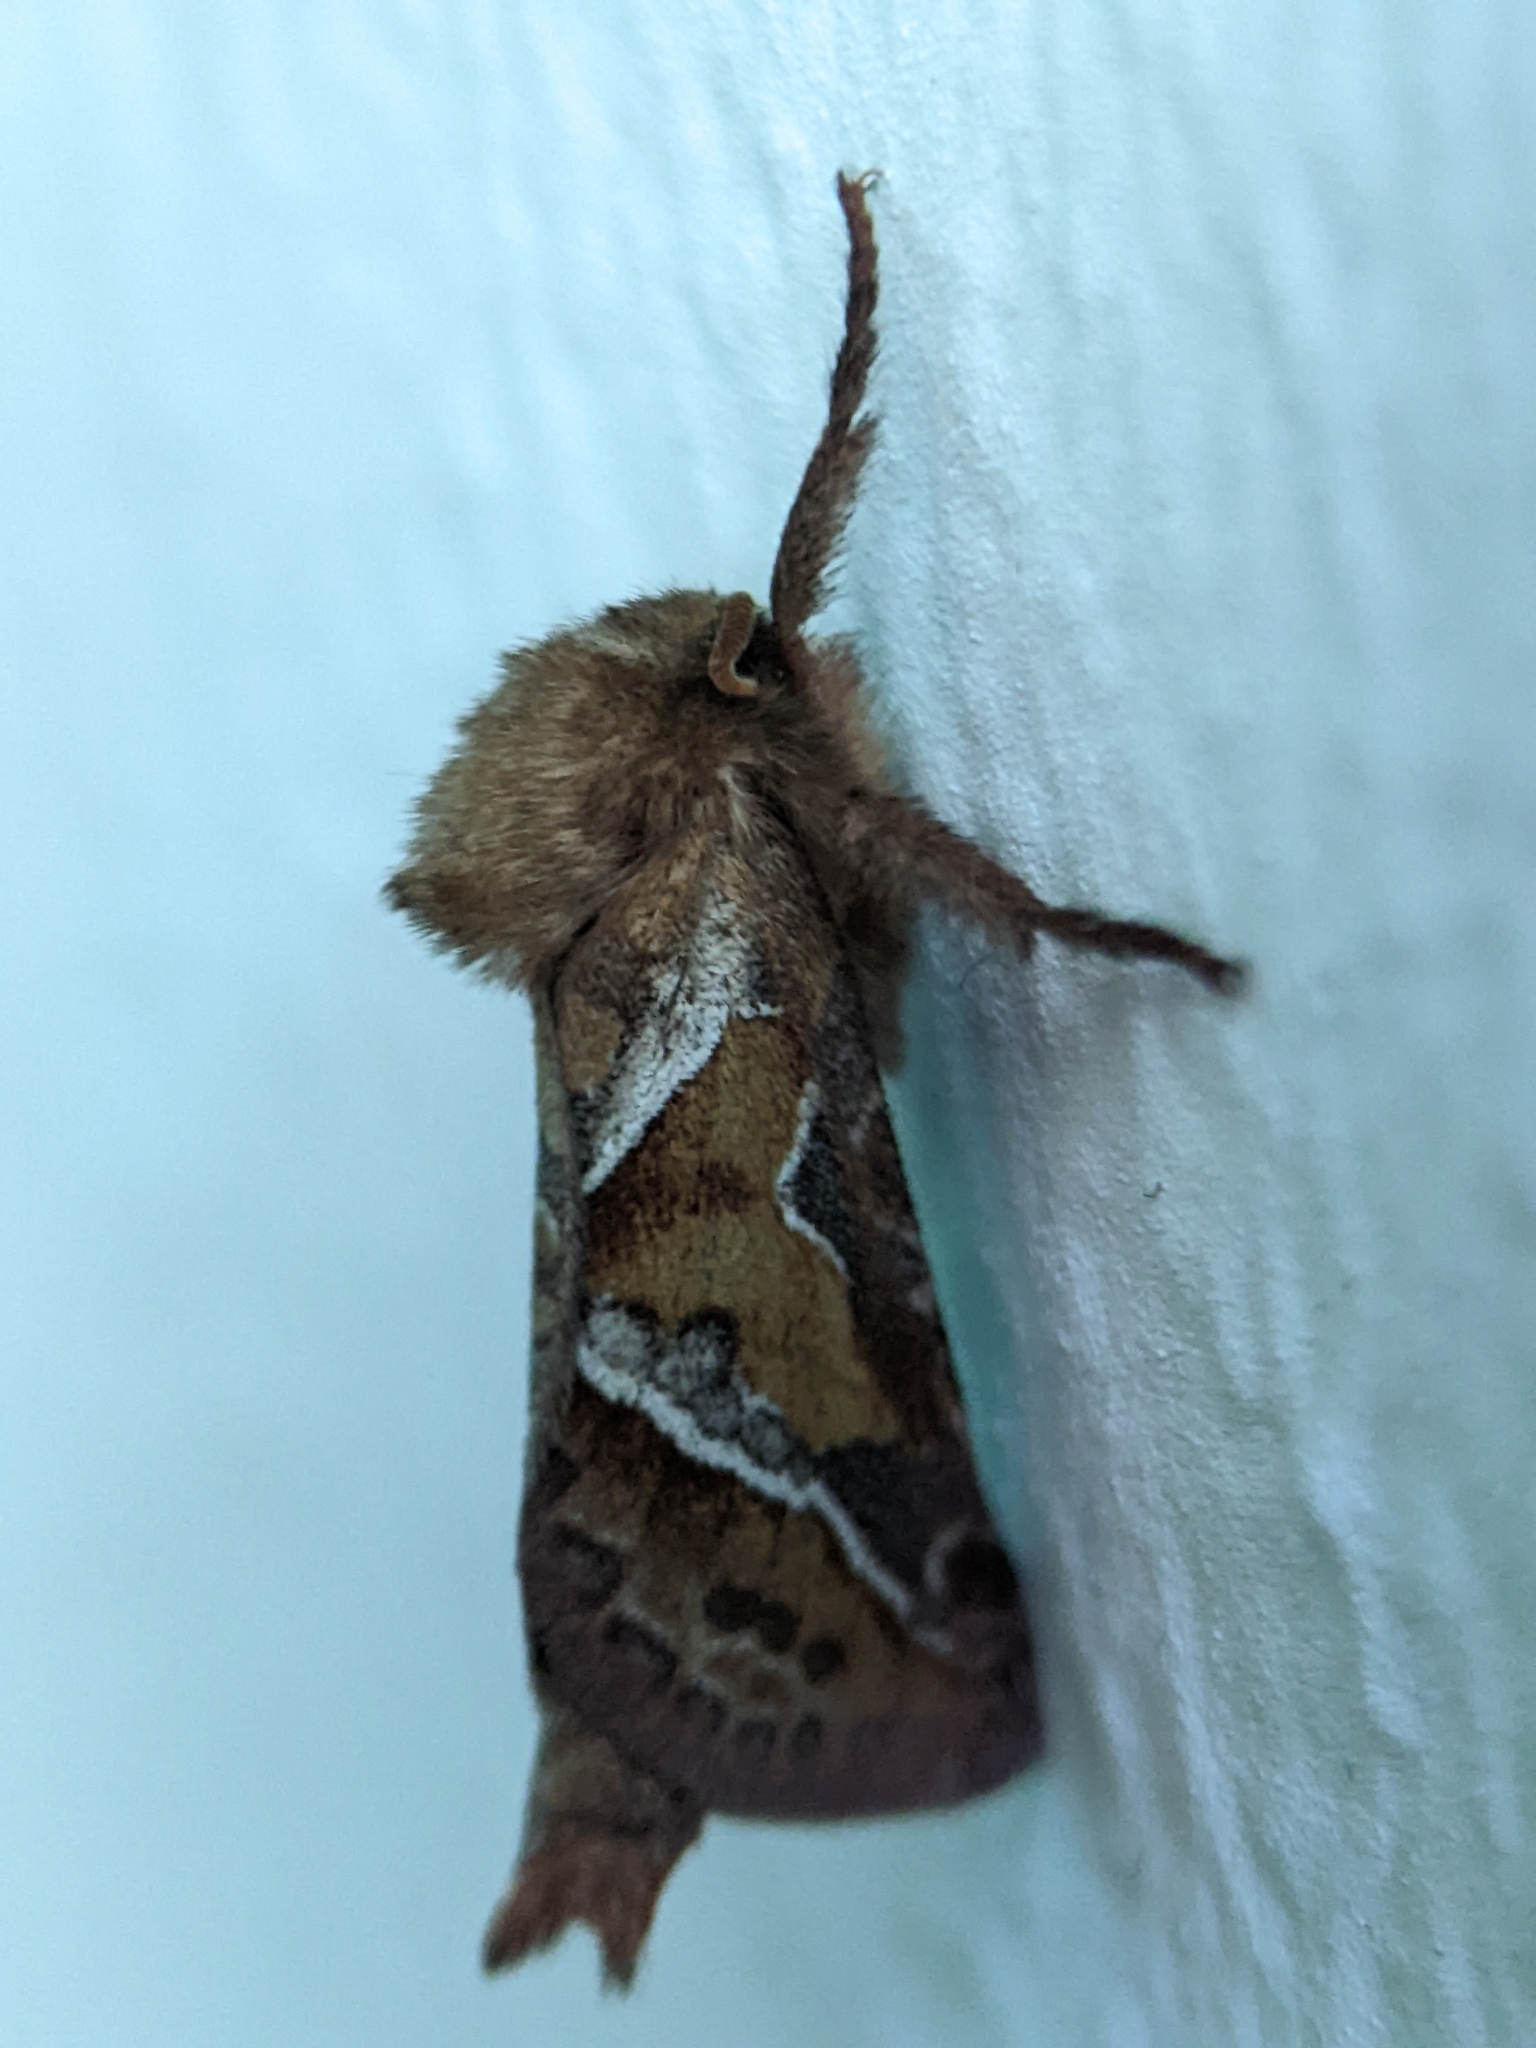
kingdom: Animalia
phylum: Arthropoda
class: Insecta
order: Lepidoptera
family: Hepialidae
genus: Triodia
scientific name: Triodia sylvina
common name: Orange swift
